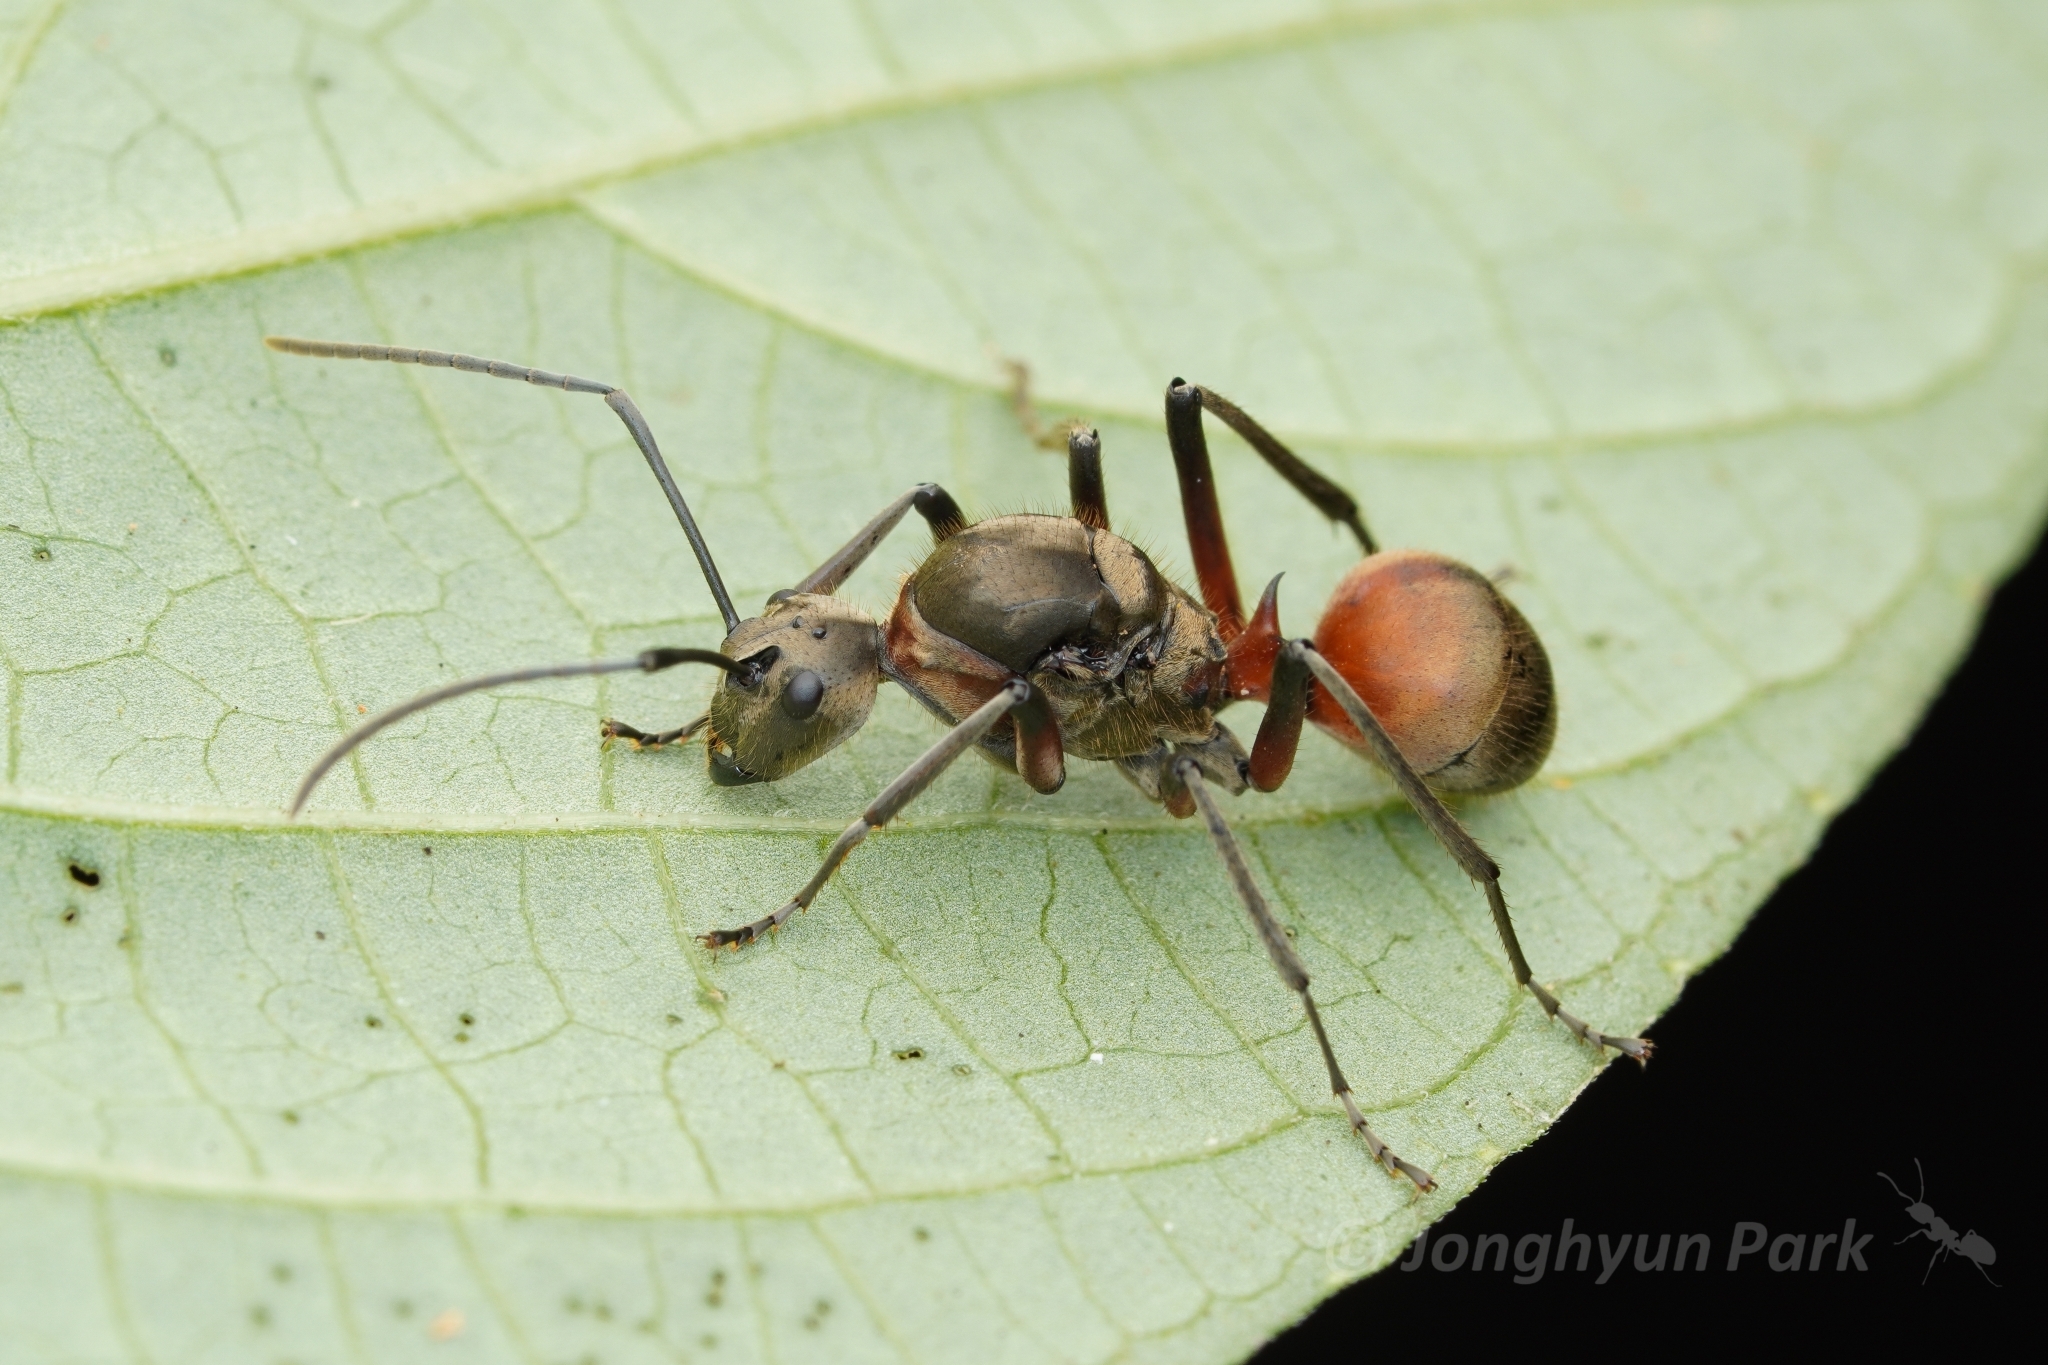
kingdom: Animalia
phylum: Arthropoda
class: Insecta
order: Hymenoptera
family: Formicidae
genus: Polyrhachis
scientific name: Polyrhachis bihamata
